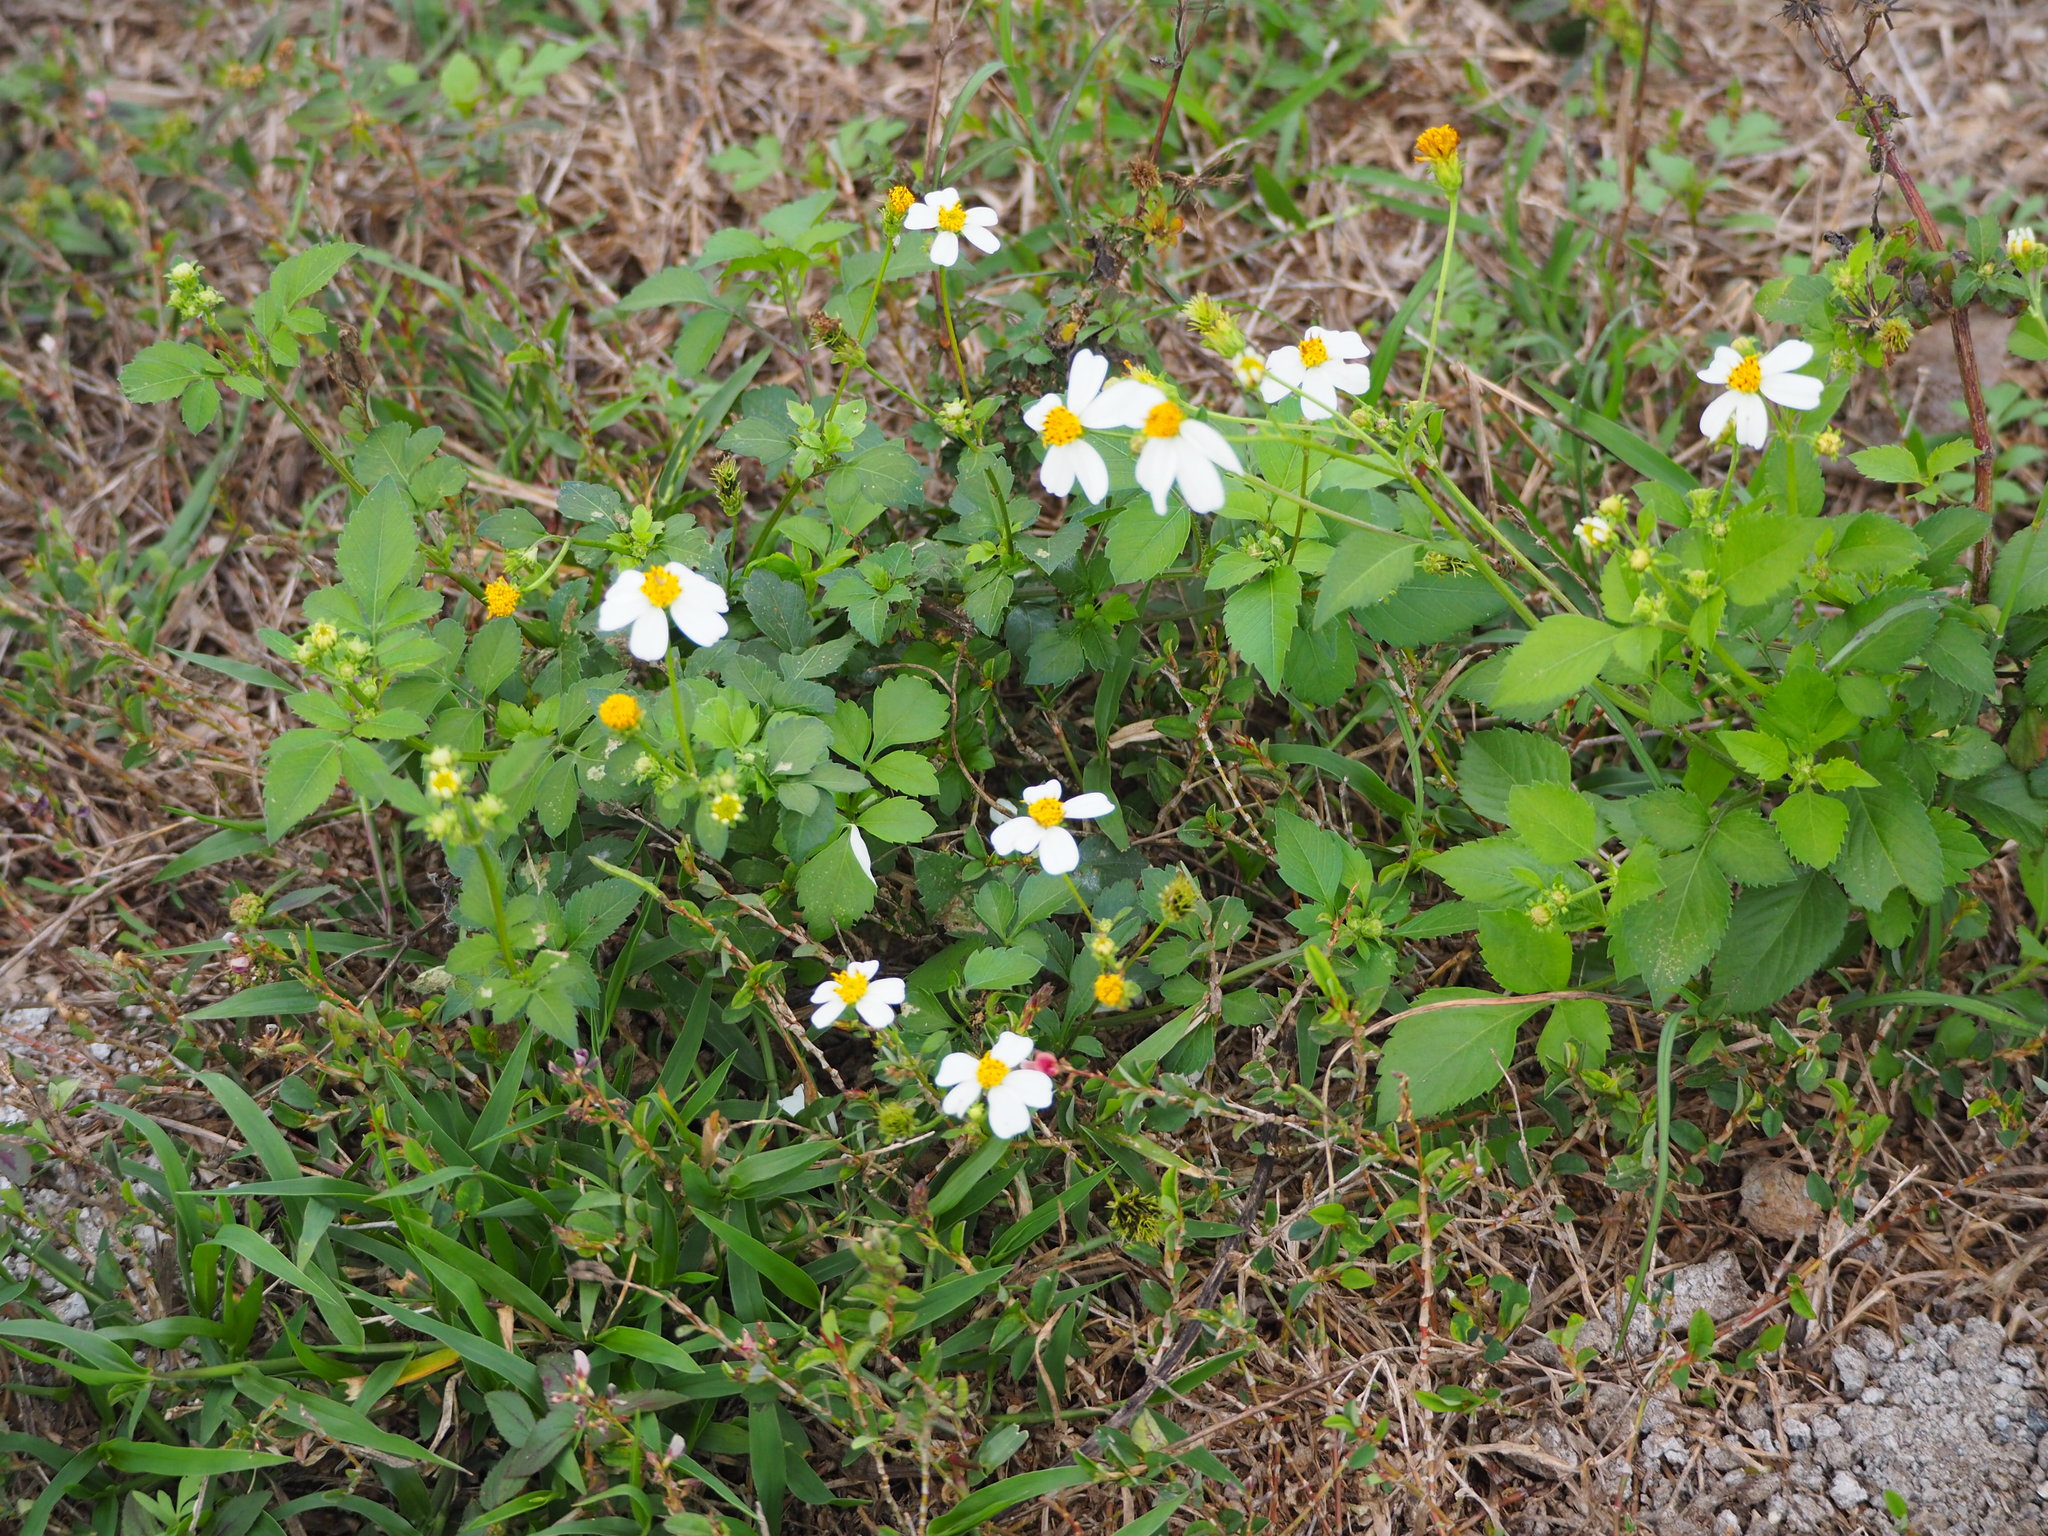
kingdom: Plantae
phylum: Tracheophyta
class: Magnoliopsida
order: Asterales
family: Asteraceae
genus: Bidens
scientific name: Bidens alba
